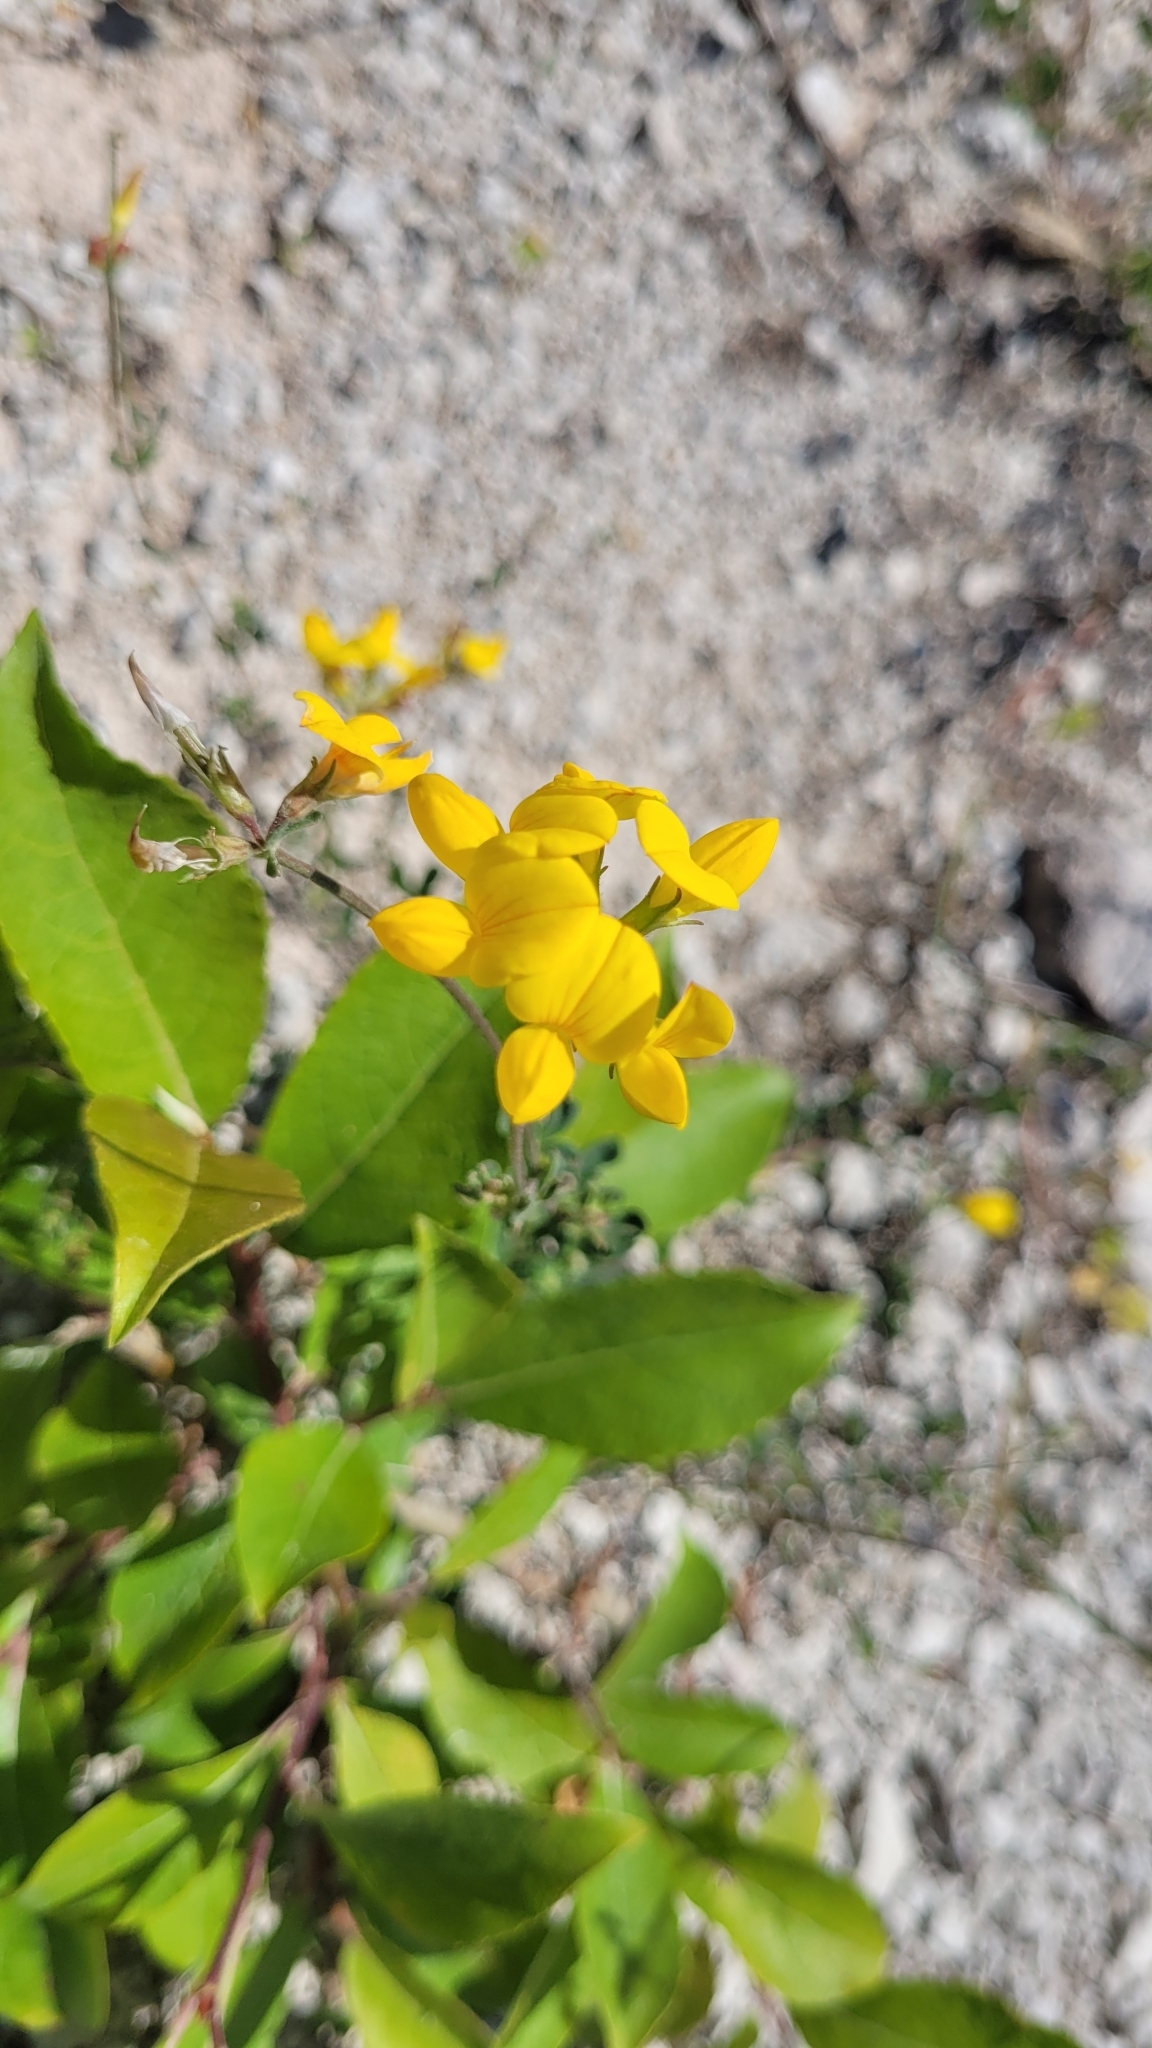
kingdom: Plantae
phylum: Tracheophyta
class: Magnoliopsida
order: Fabales
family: Fabaceae
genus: Lotus
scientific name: Lotus corniculatus
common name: Common bird's-foot-trefoil
